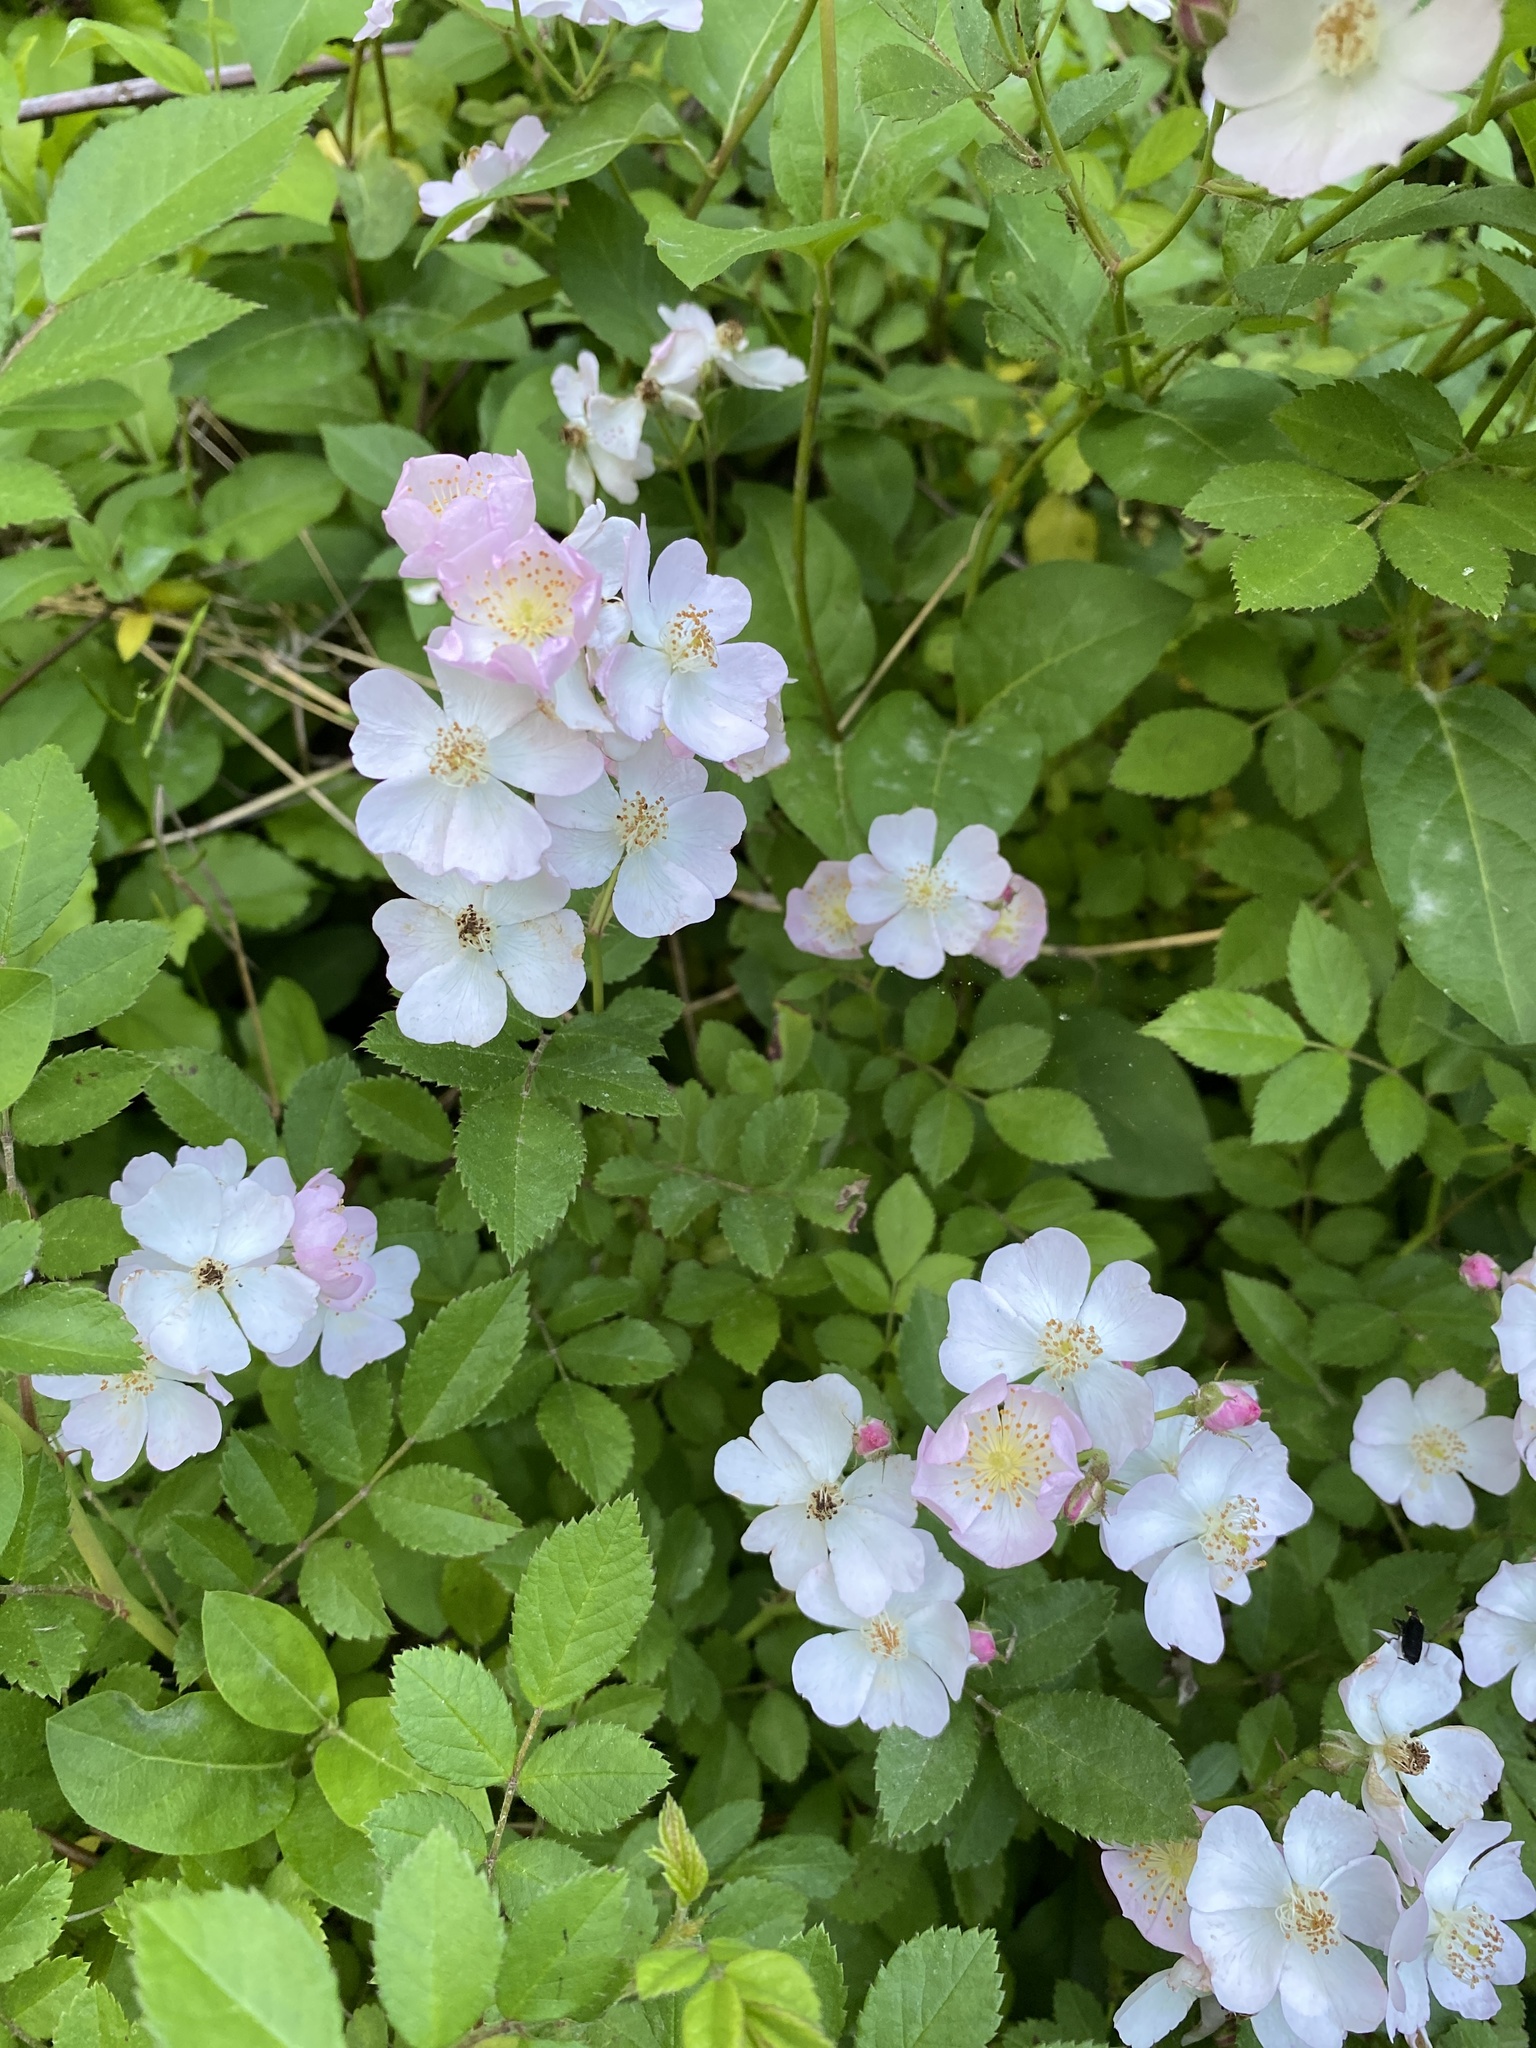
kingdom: Plantae
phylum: Tracheophyta
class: Magnoliopsida
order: Rosales
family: Rosaceae
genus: Rosa
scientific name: Rosa multiflora
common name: Multiflora rose
